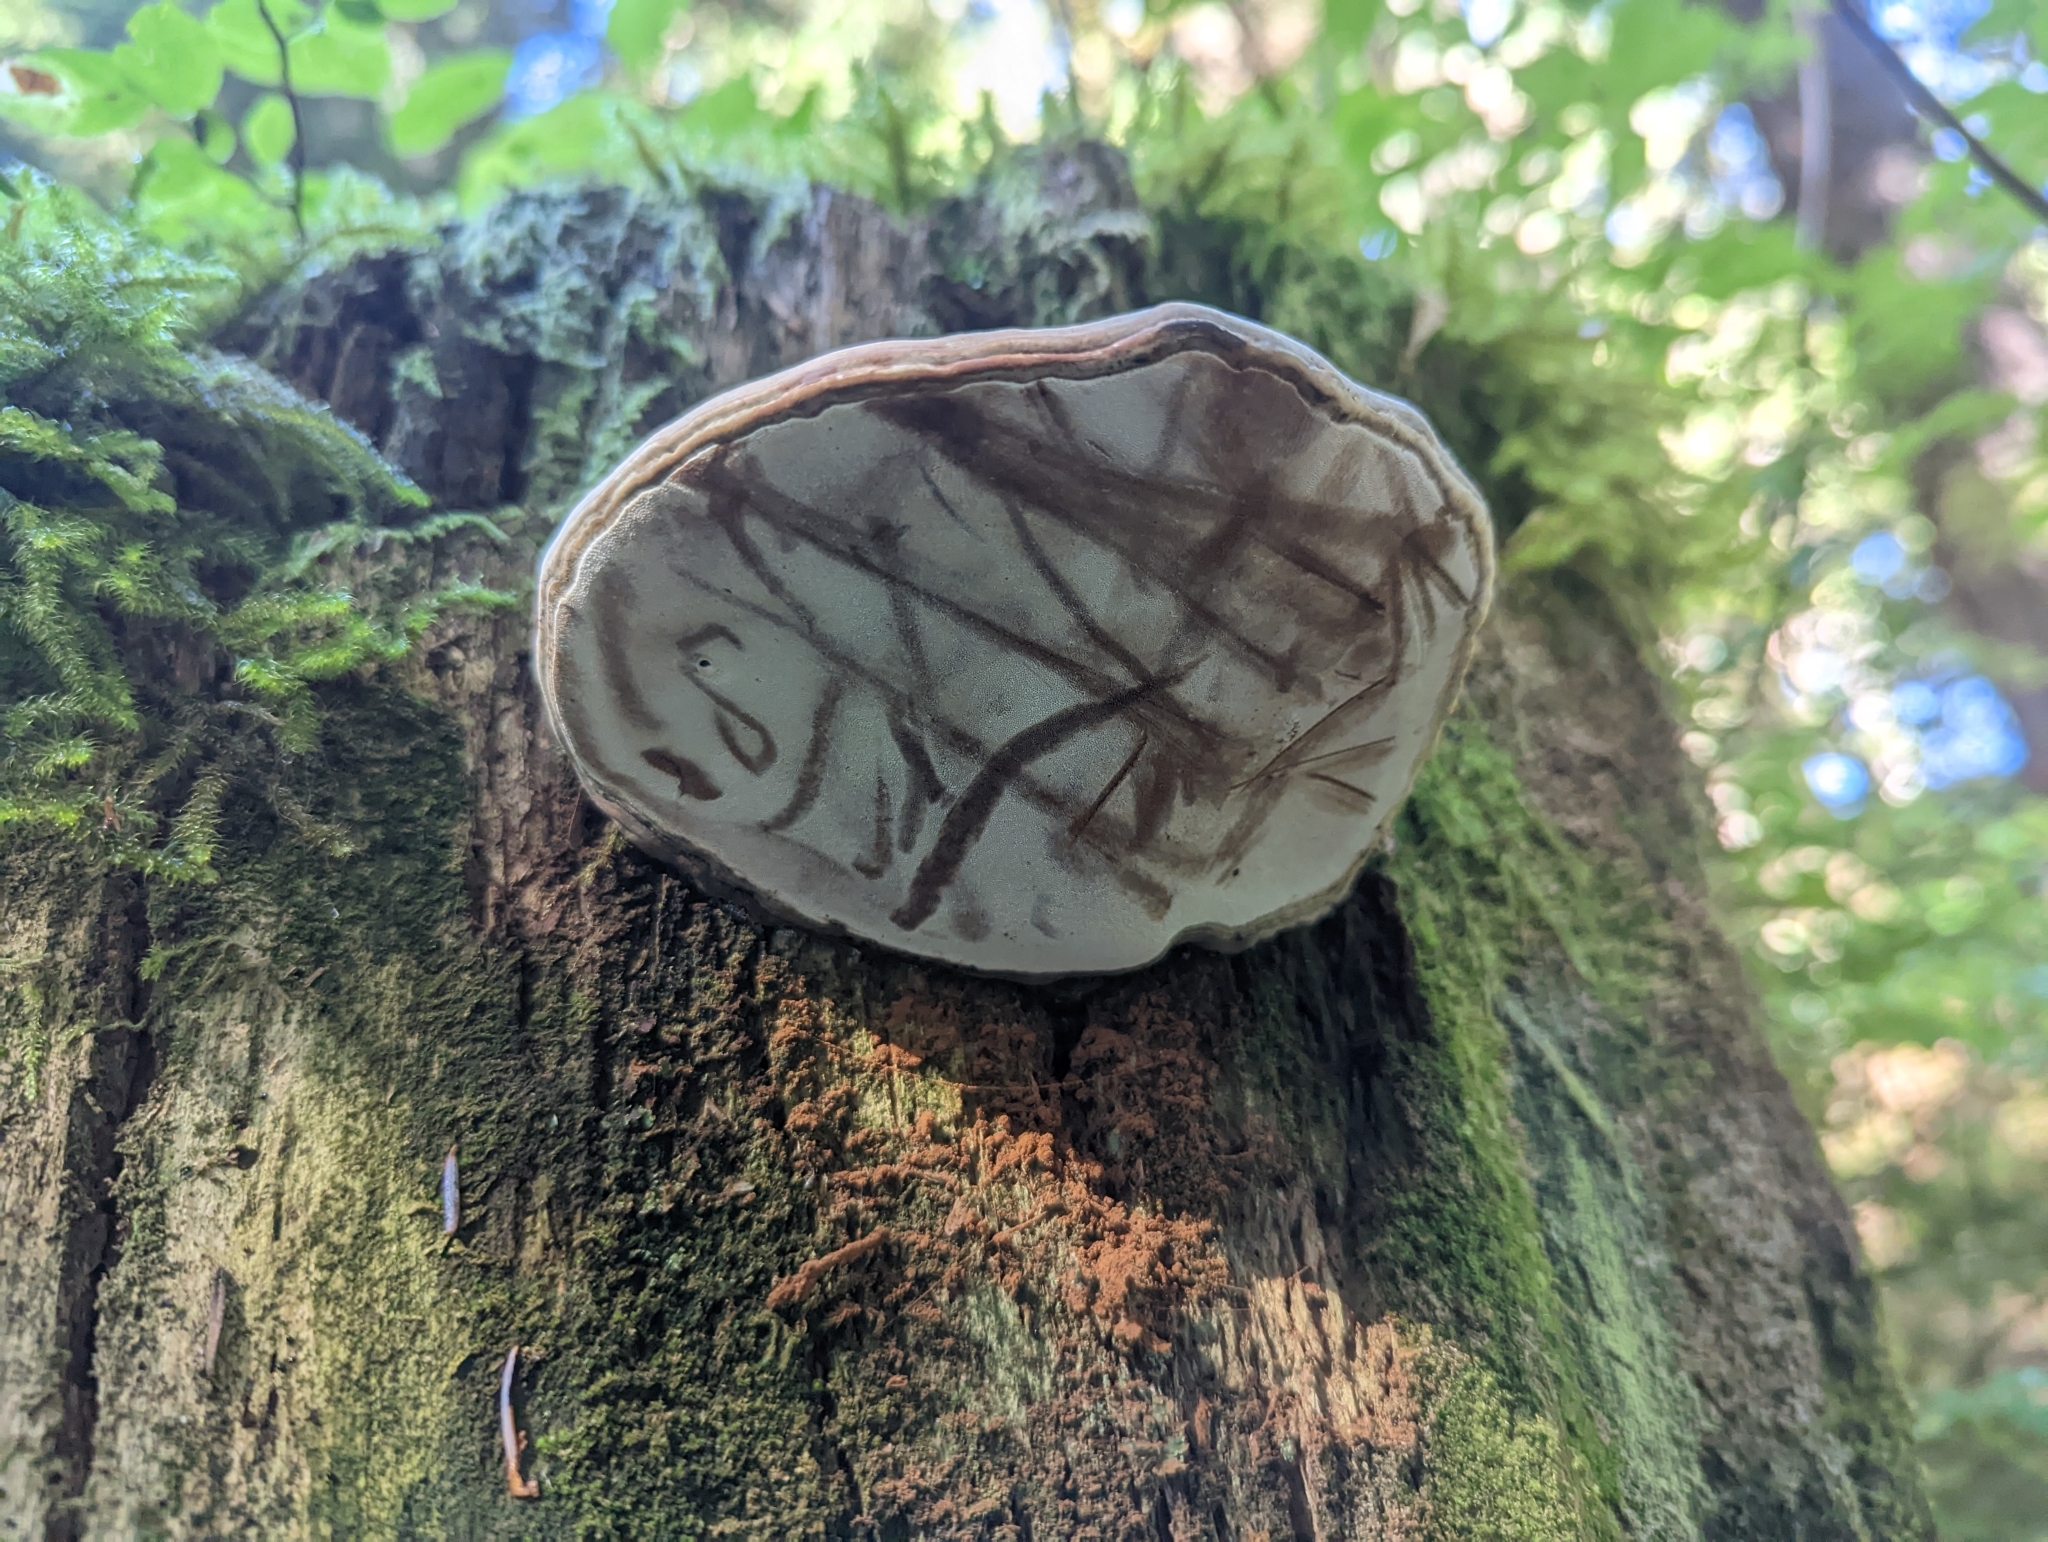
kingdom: Fungi
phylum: Basidiomycota
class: Agaricomycetes
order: Polyporales
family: Polyporaceae
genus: Ganoderma
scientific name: Ganoderma applanatum
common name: Artist's bracket
